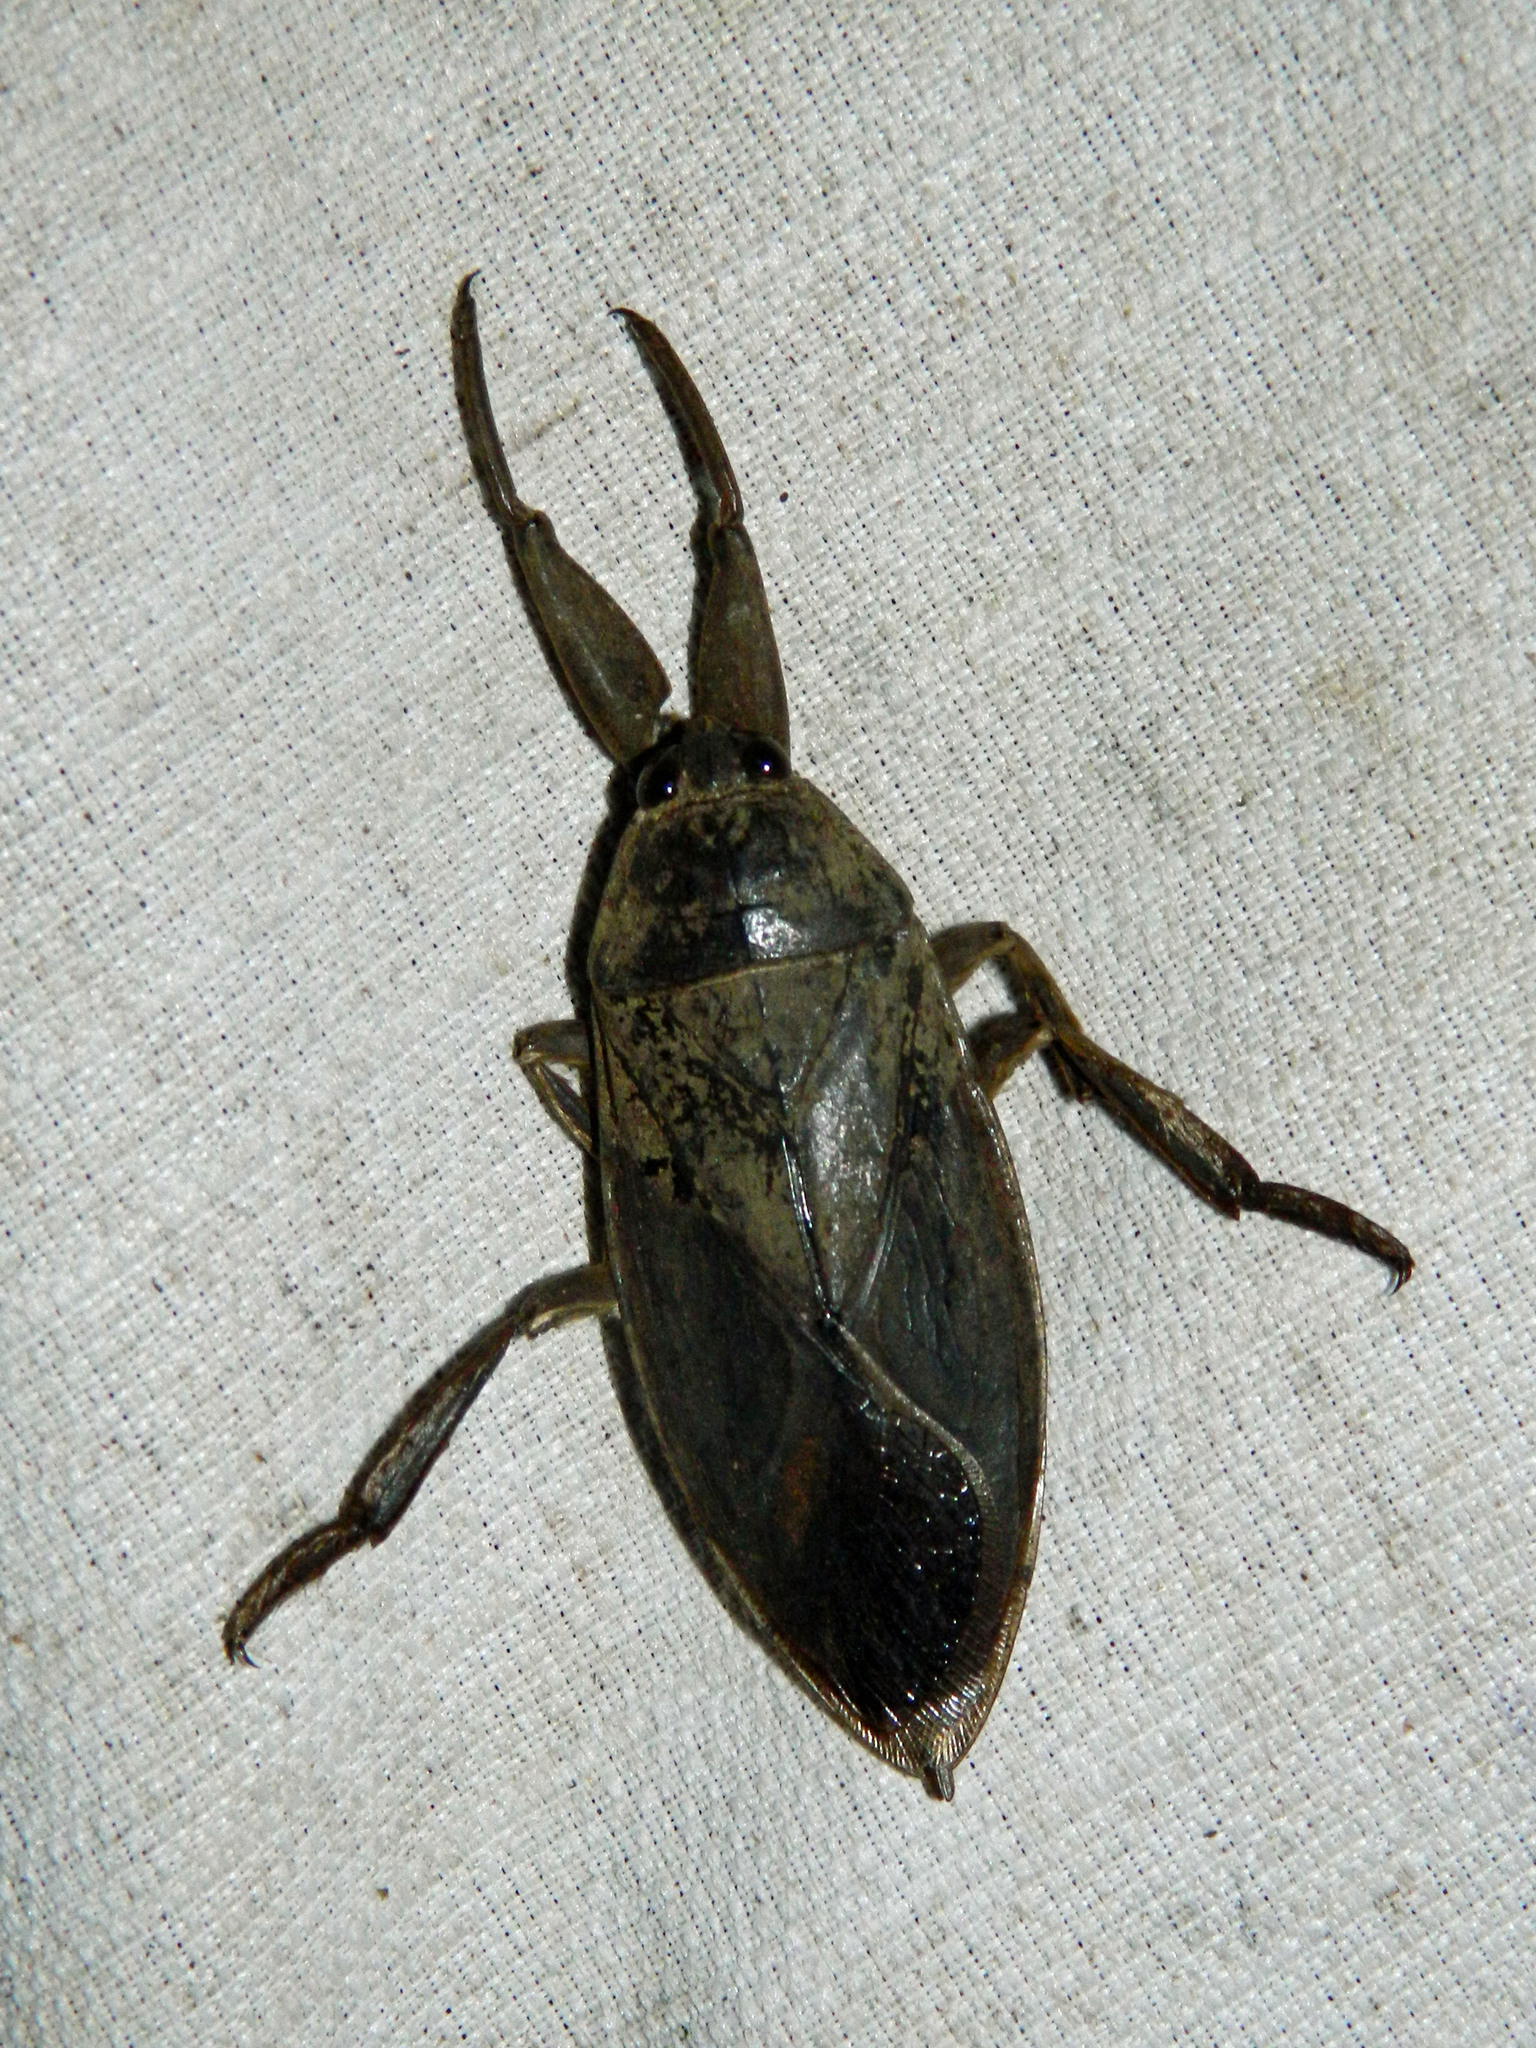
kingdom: Animalia
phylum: Arthropoda
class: Insecta
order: Hemiptera
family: Belostomatidae
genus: Lethocerus
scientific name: Lethocerus americanus
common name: Giant water bug
